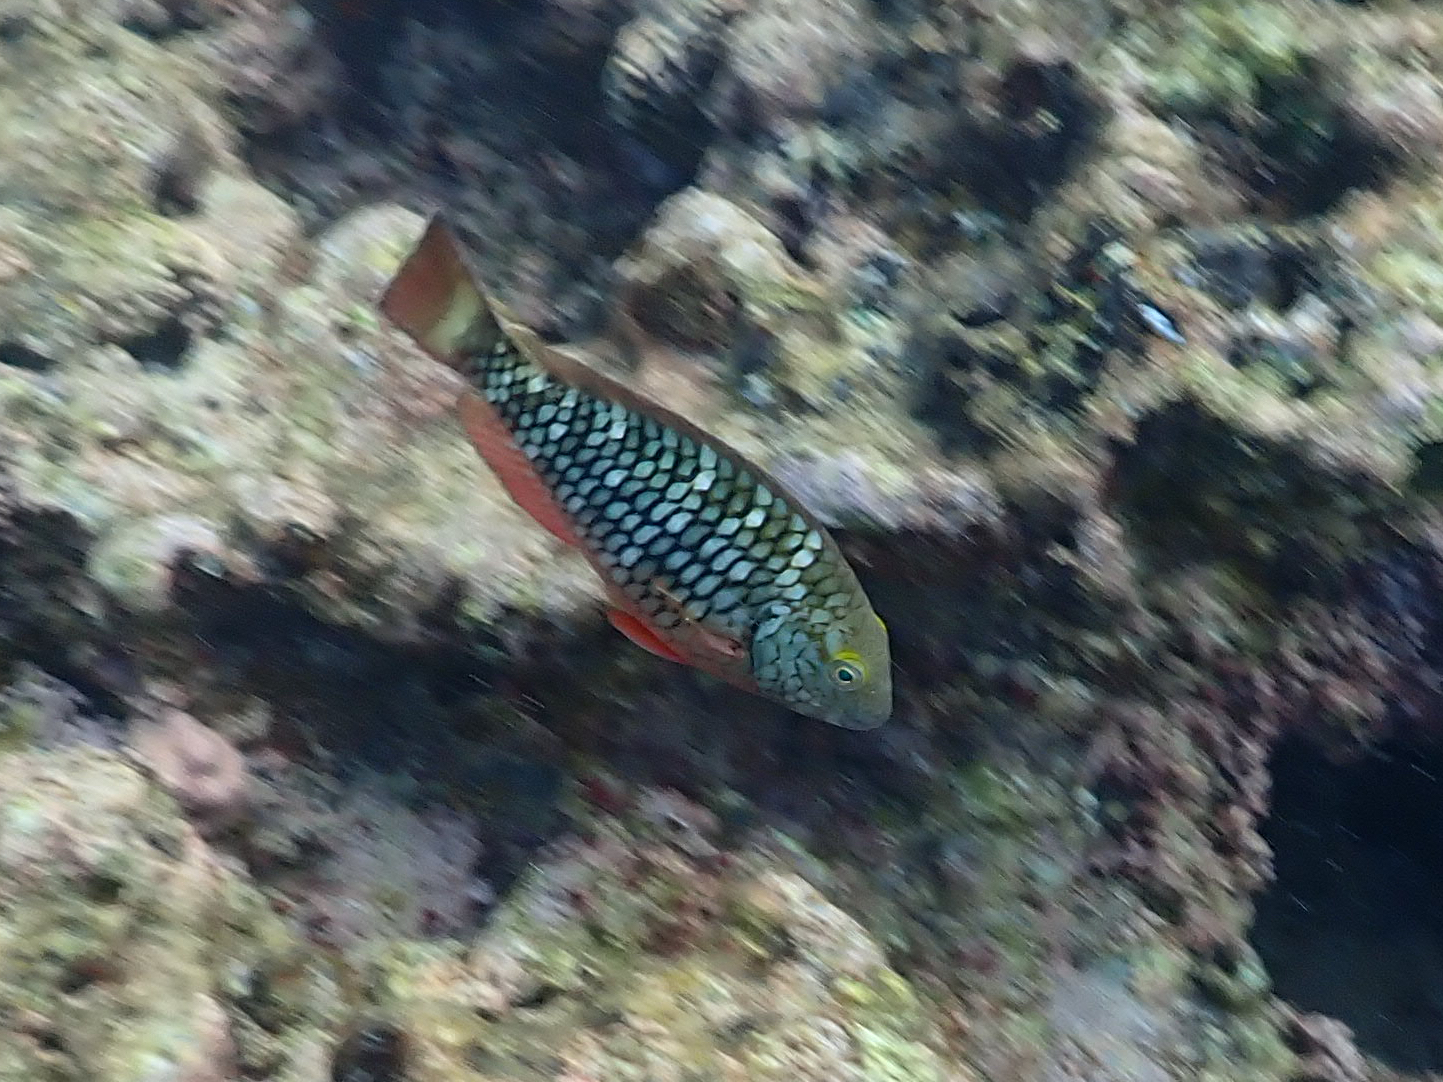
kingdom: Animalia
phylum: Chordata
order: Perciformes
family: Scaridae
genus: Sparisoma
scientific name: Sparisoma viride
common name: Stoplight parrotfish
